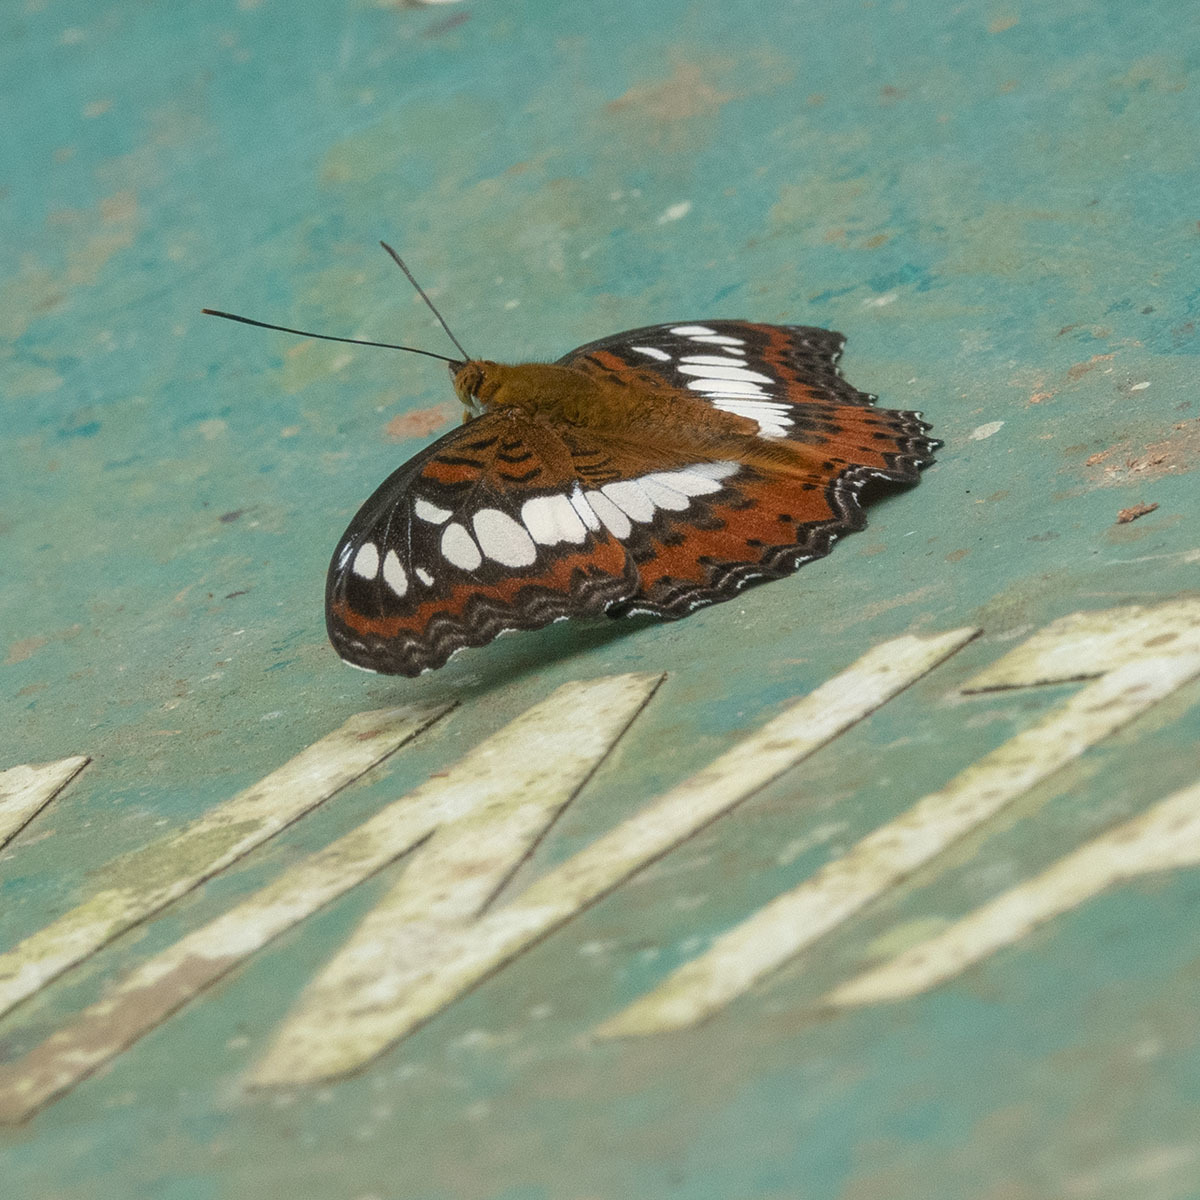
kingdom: Animalia
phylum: Arthropoda
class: Insecta
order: Lepidoptera
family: Nymphalidae
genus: Limenitis
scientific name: Limenitis Moduza procris
